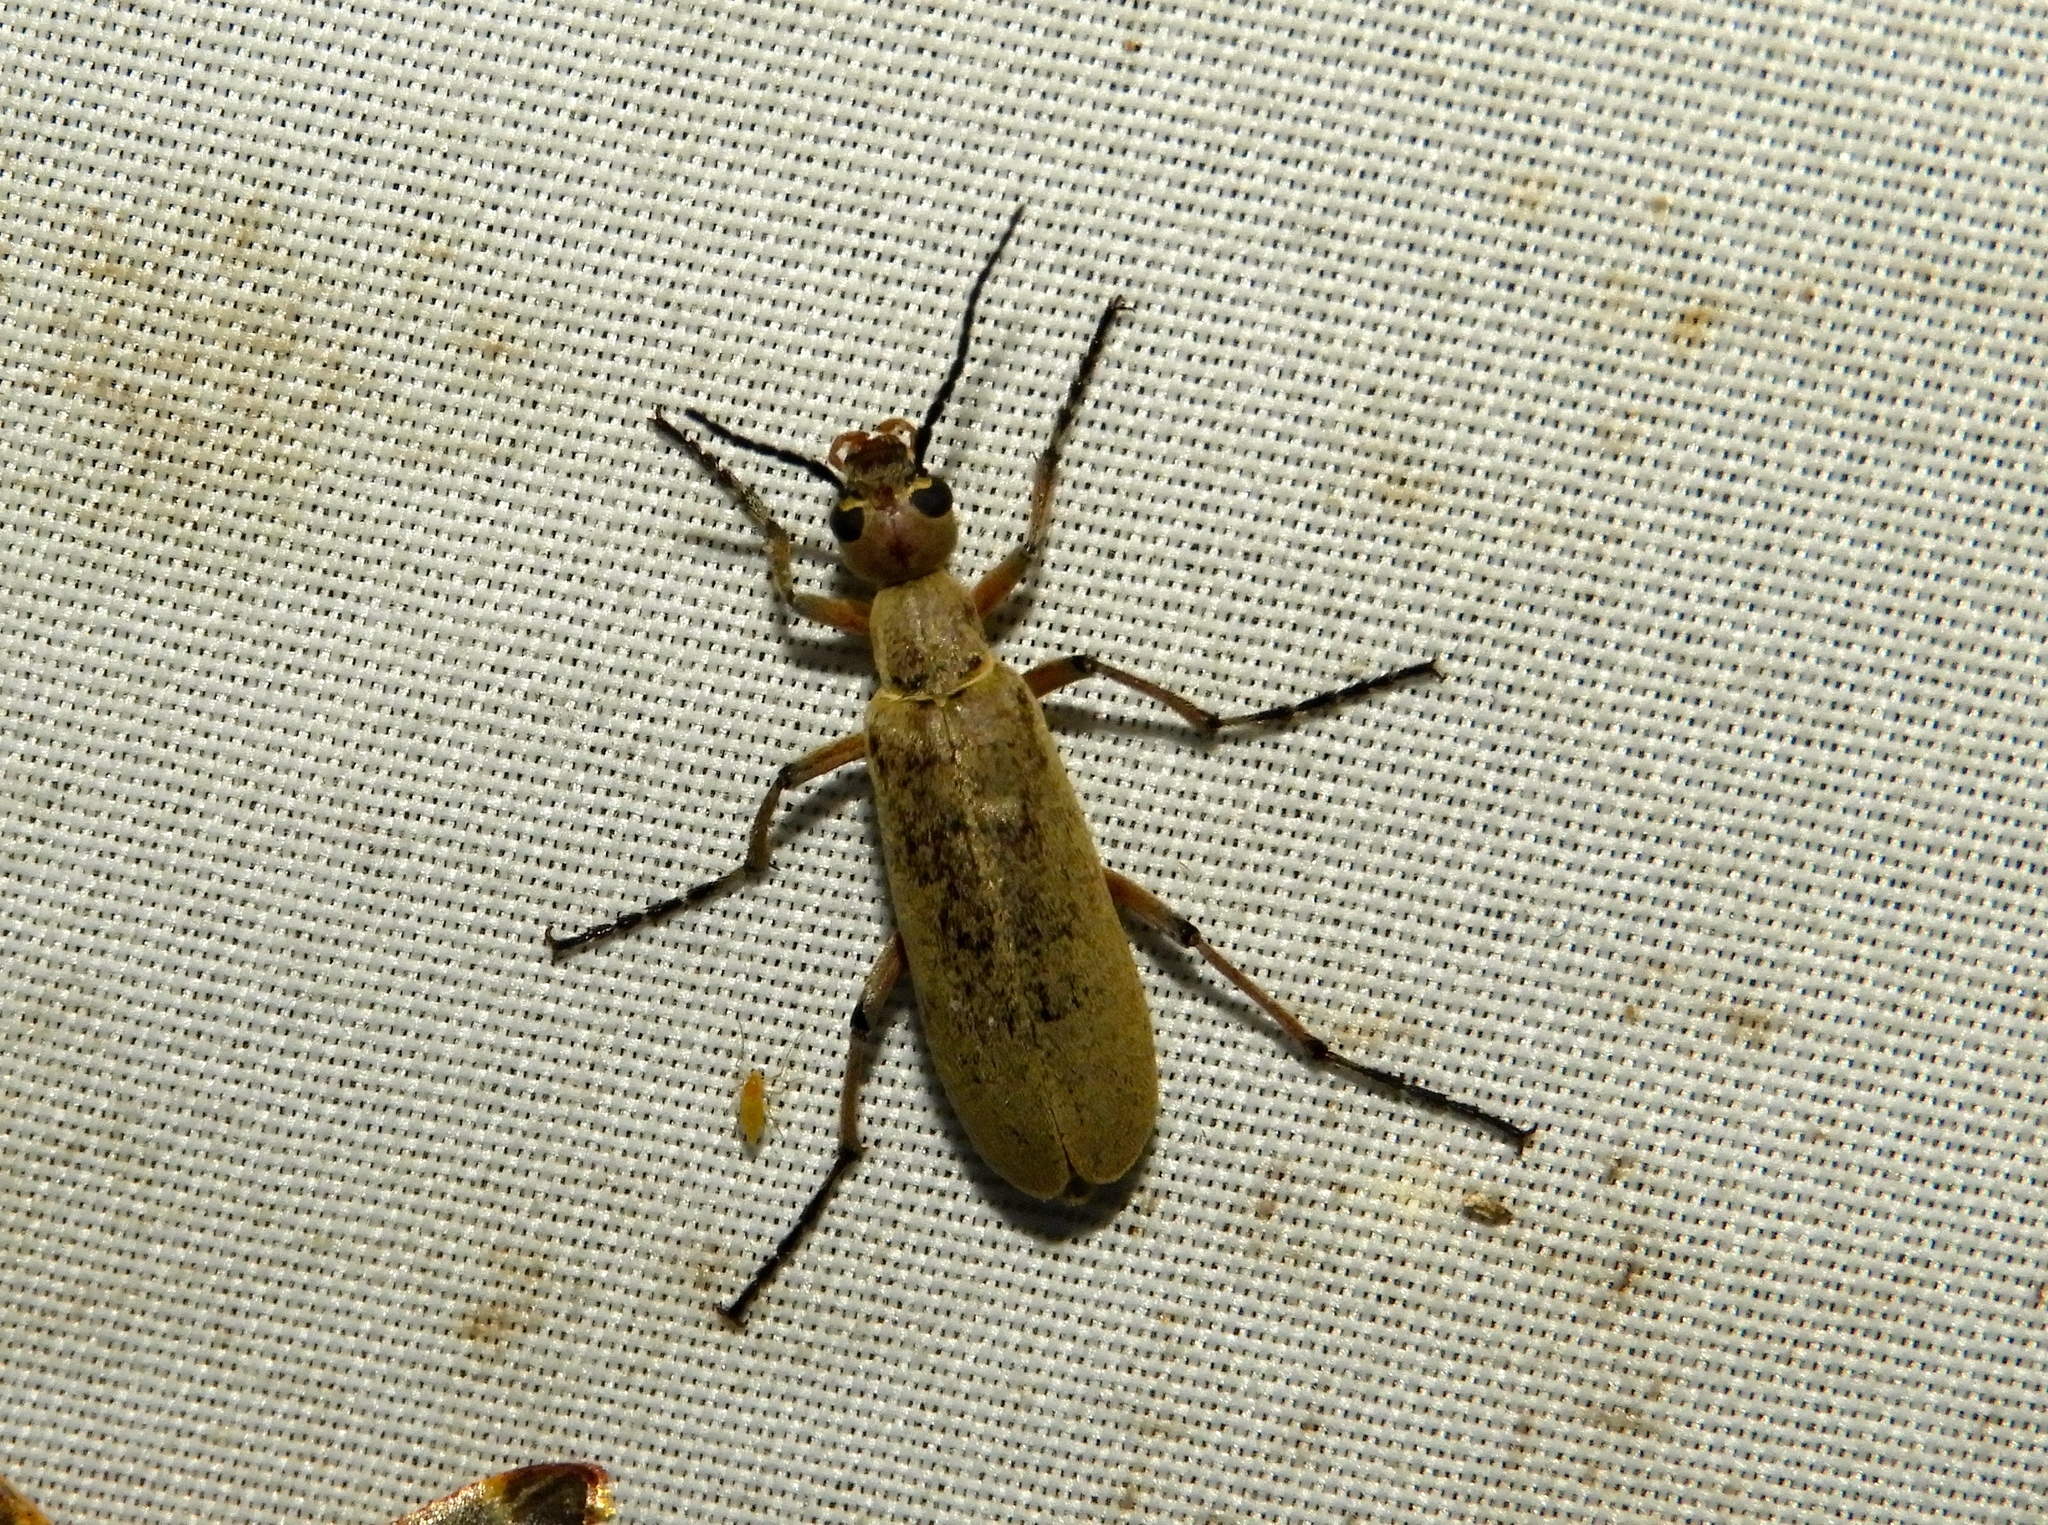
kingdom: Animalia
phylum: Arthropoda
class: Insecta
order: Coleoptera
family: Meloidae
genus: Epicauta
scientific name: Epicauta
